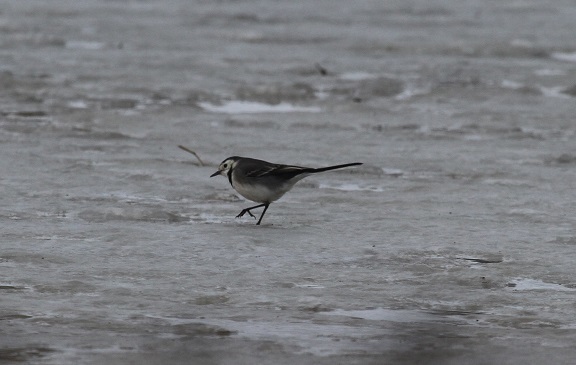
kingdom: Animalia
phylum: Chordata
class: Aves
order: Passeriformes
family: Motacillidae
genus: Motacilla
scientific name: Motacilla alba
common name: White wagtail
